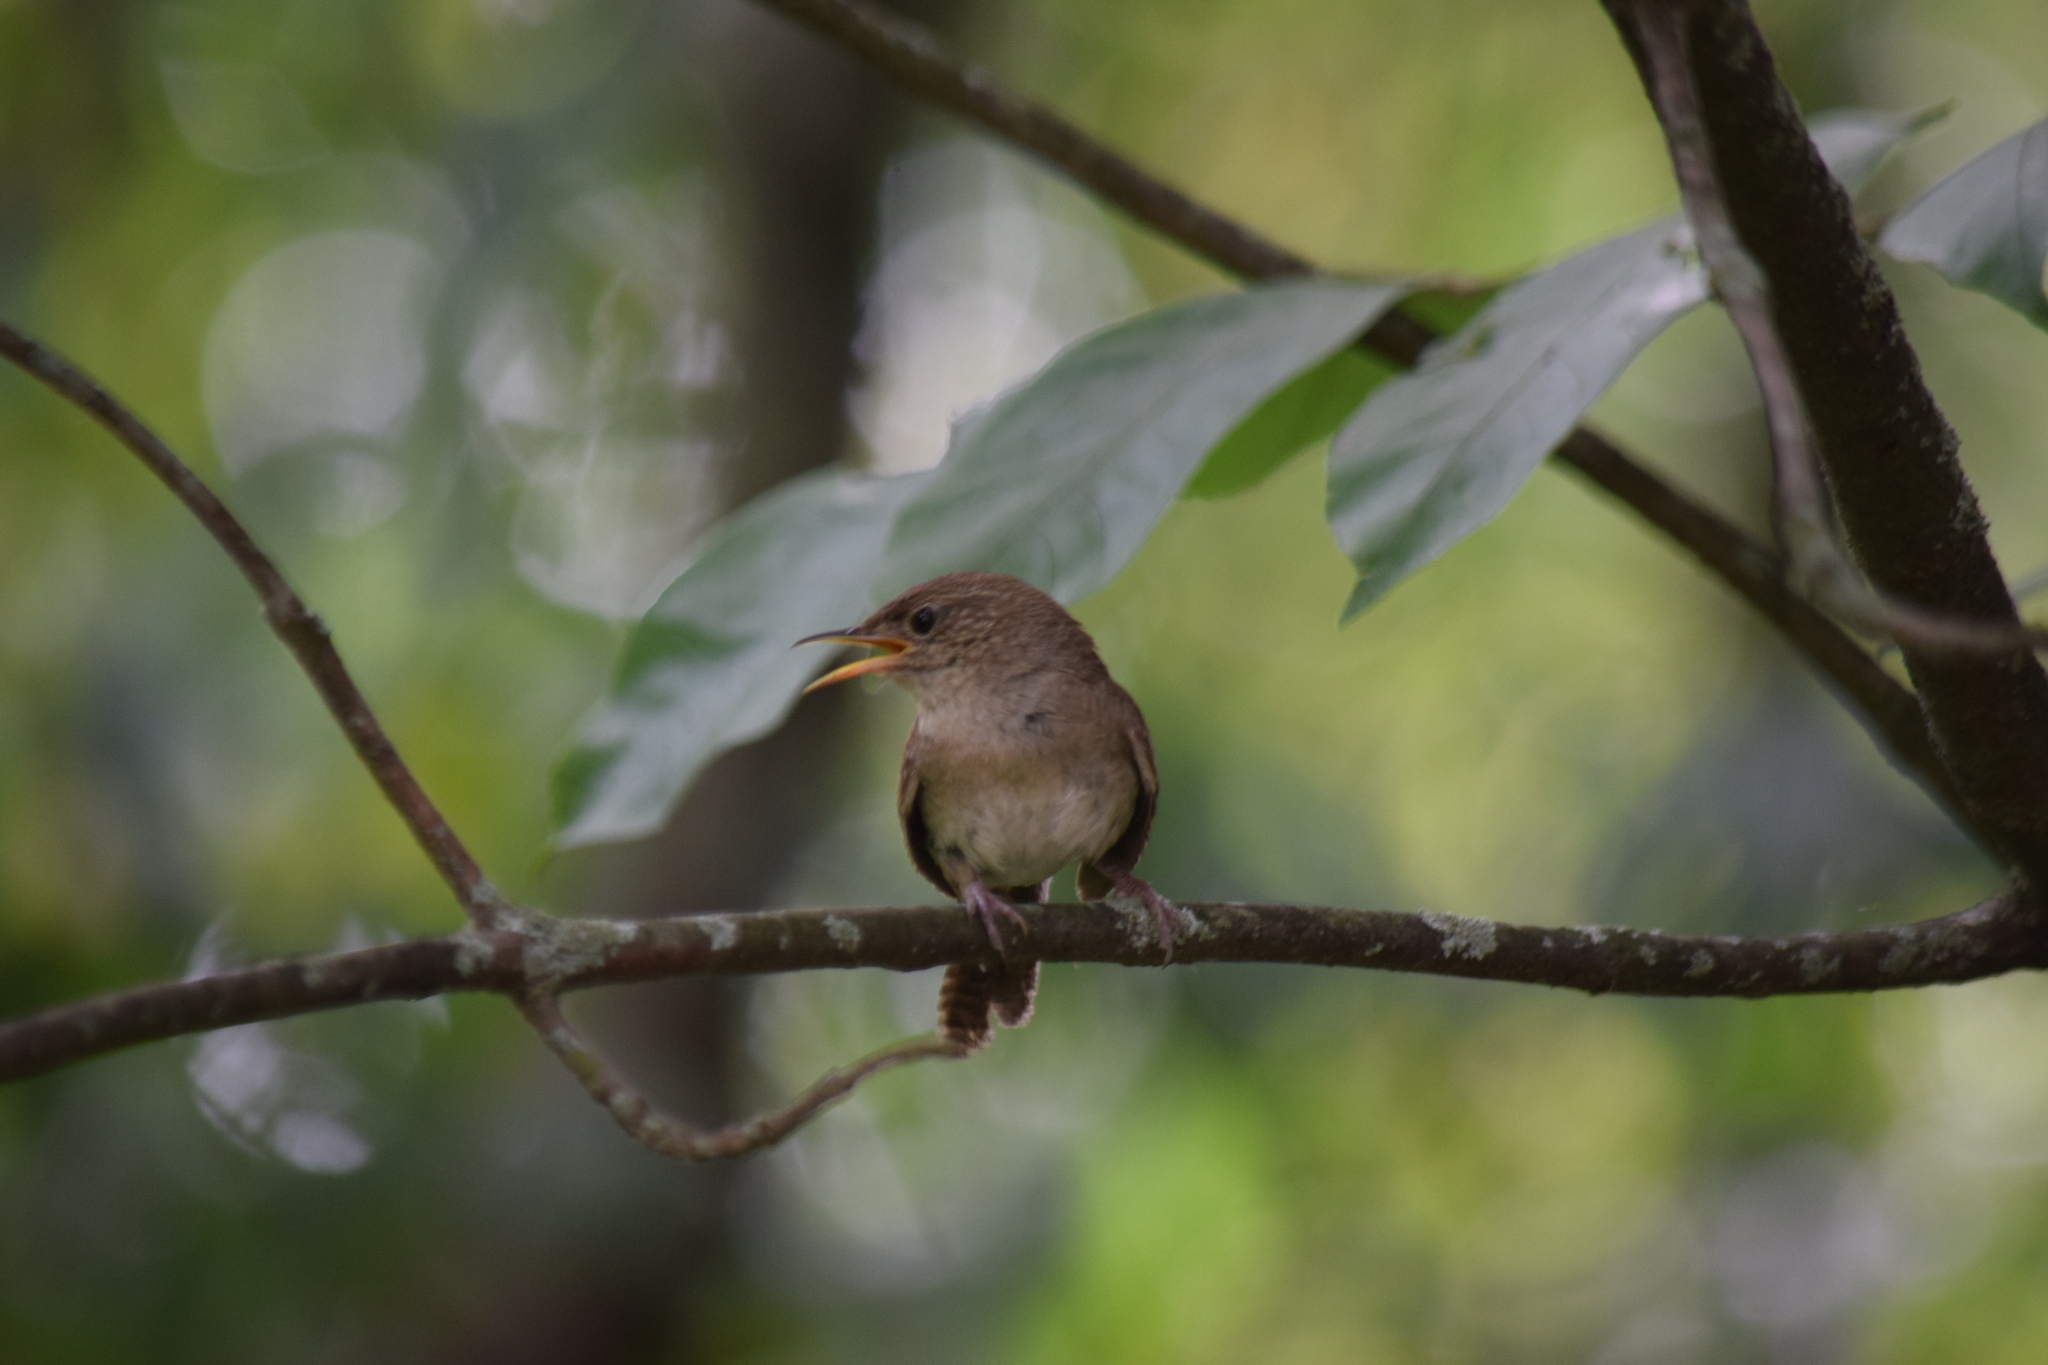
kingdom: Animalia
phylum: Chordata
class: Aves
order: Passeriformes
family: Troglodytidae
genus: Troglodytes
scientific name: Troglodytes aedon
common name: House wren
